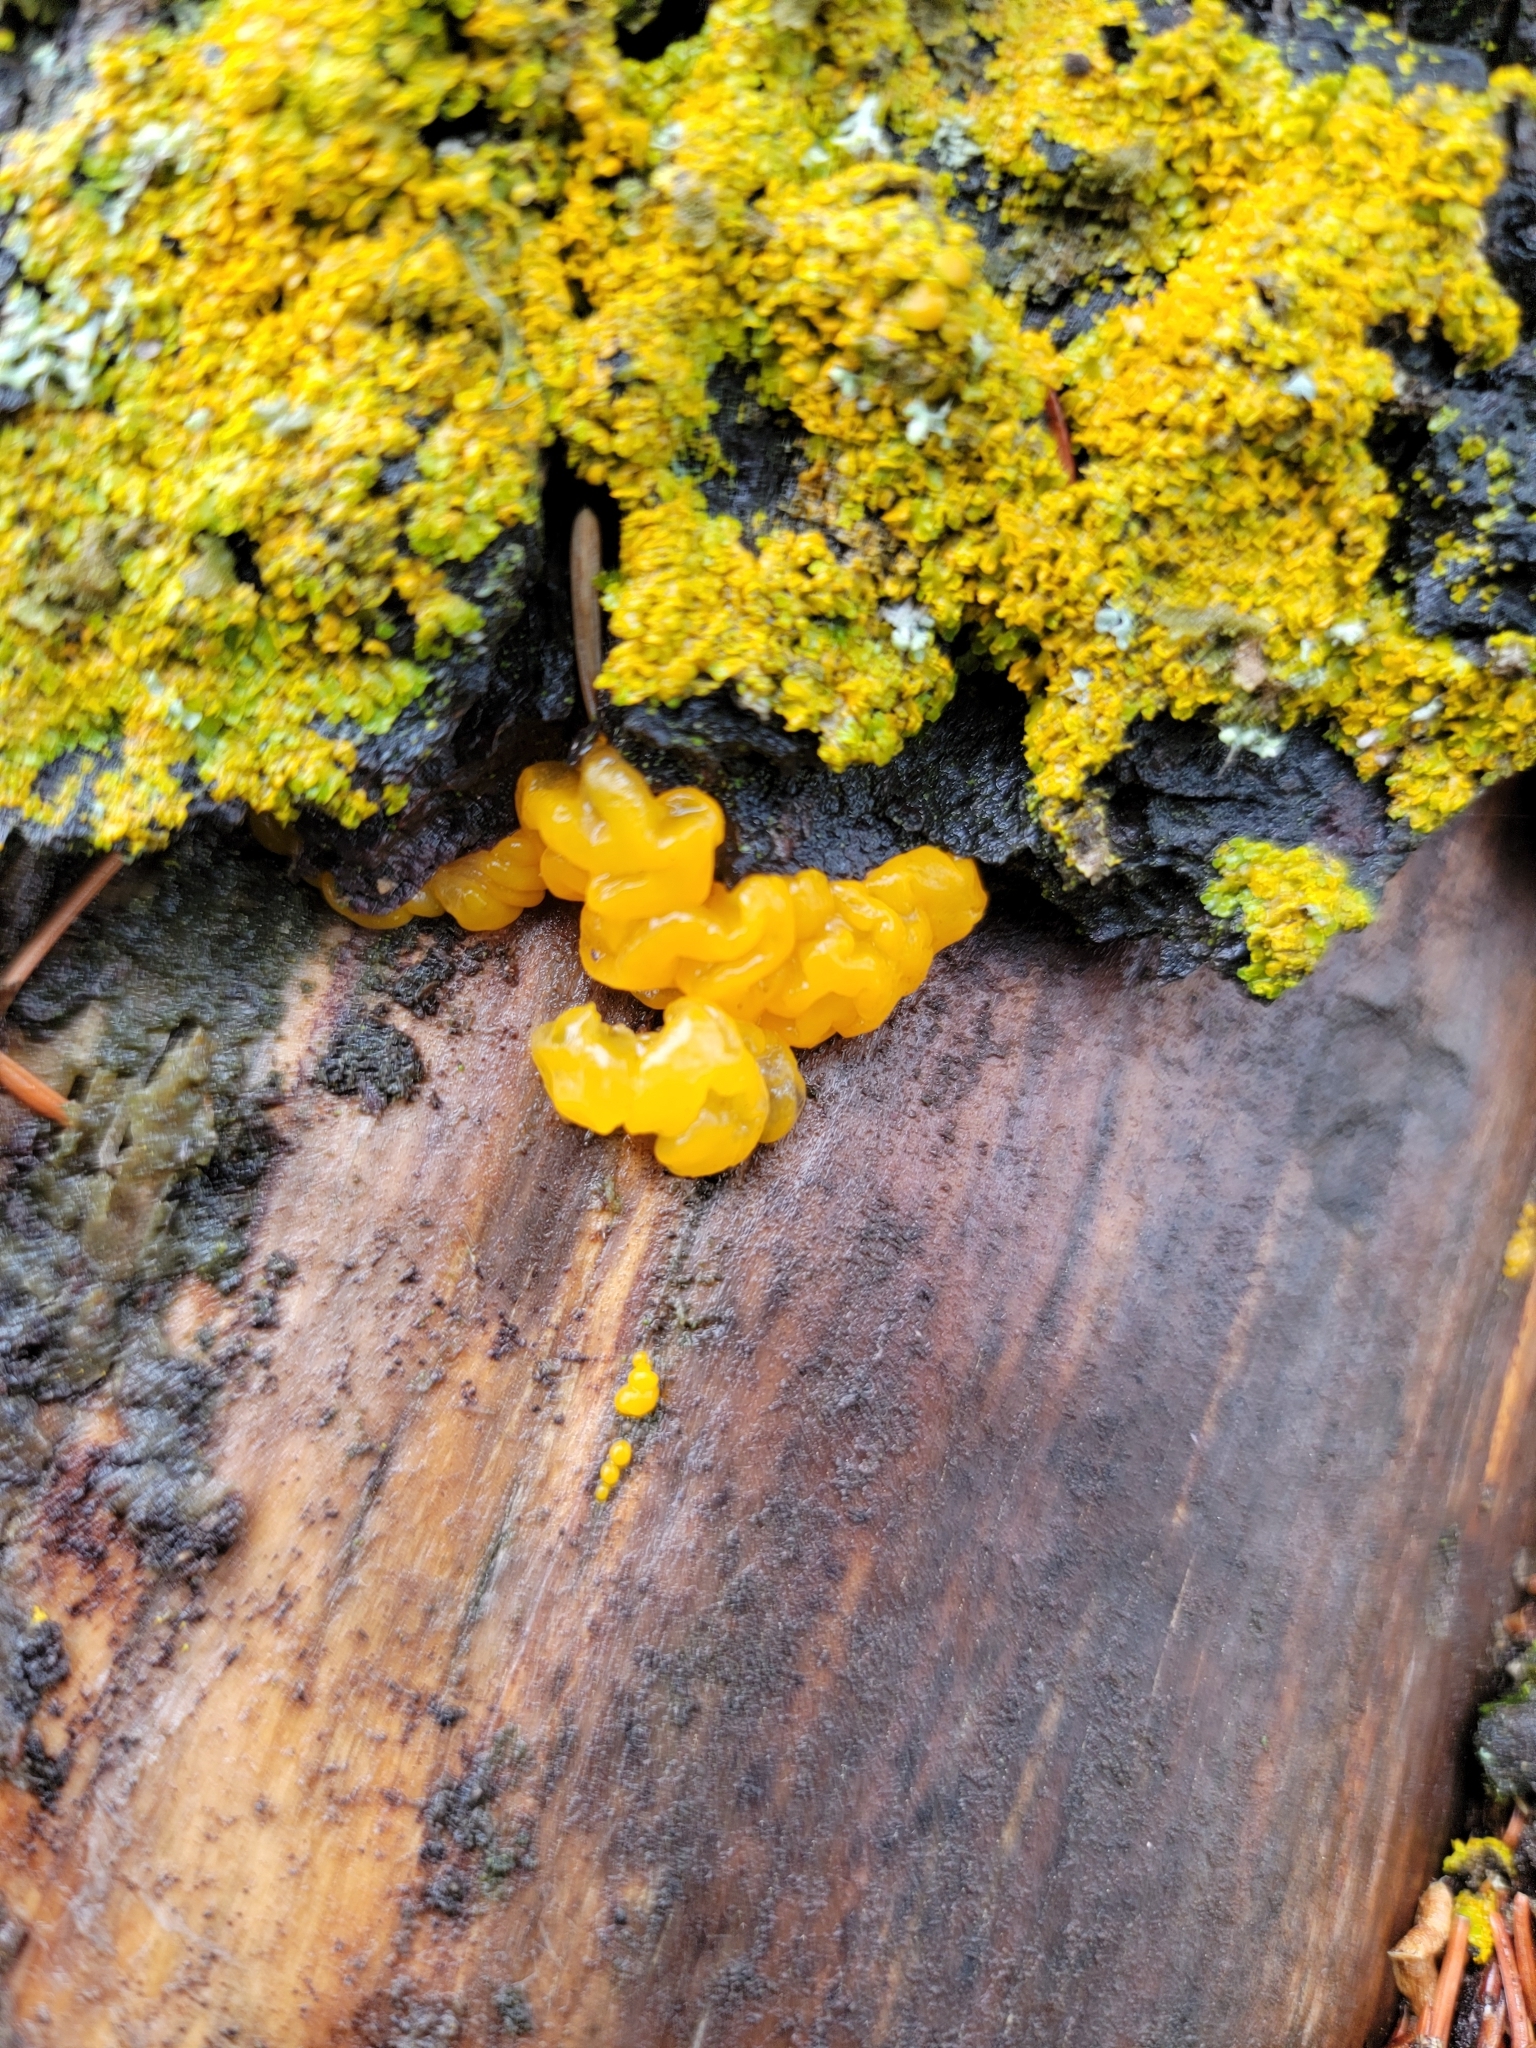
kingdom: Fungi
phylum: Basidiomycota
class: Dacrymycetes
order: Dacrymycetales
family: Dacrymycetaceae
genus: Dacrymyces
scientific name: Dacrymyces chrysospermus
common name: Orange jelly spot
